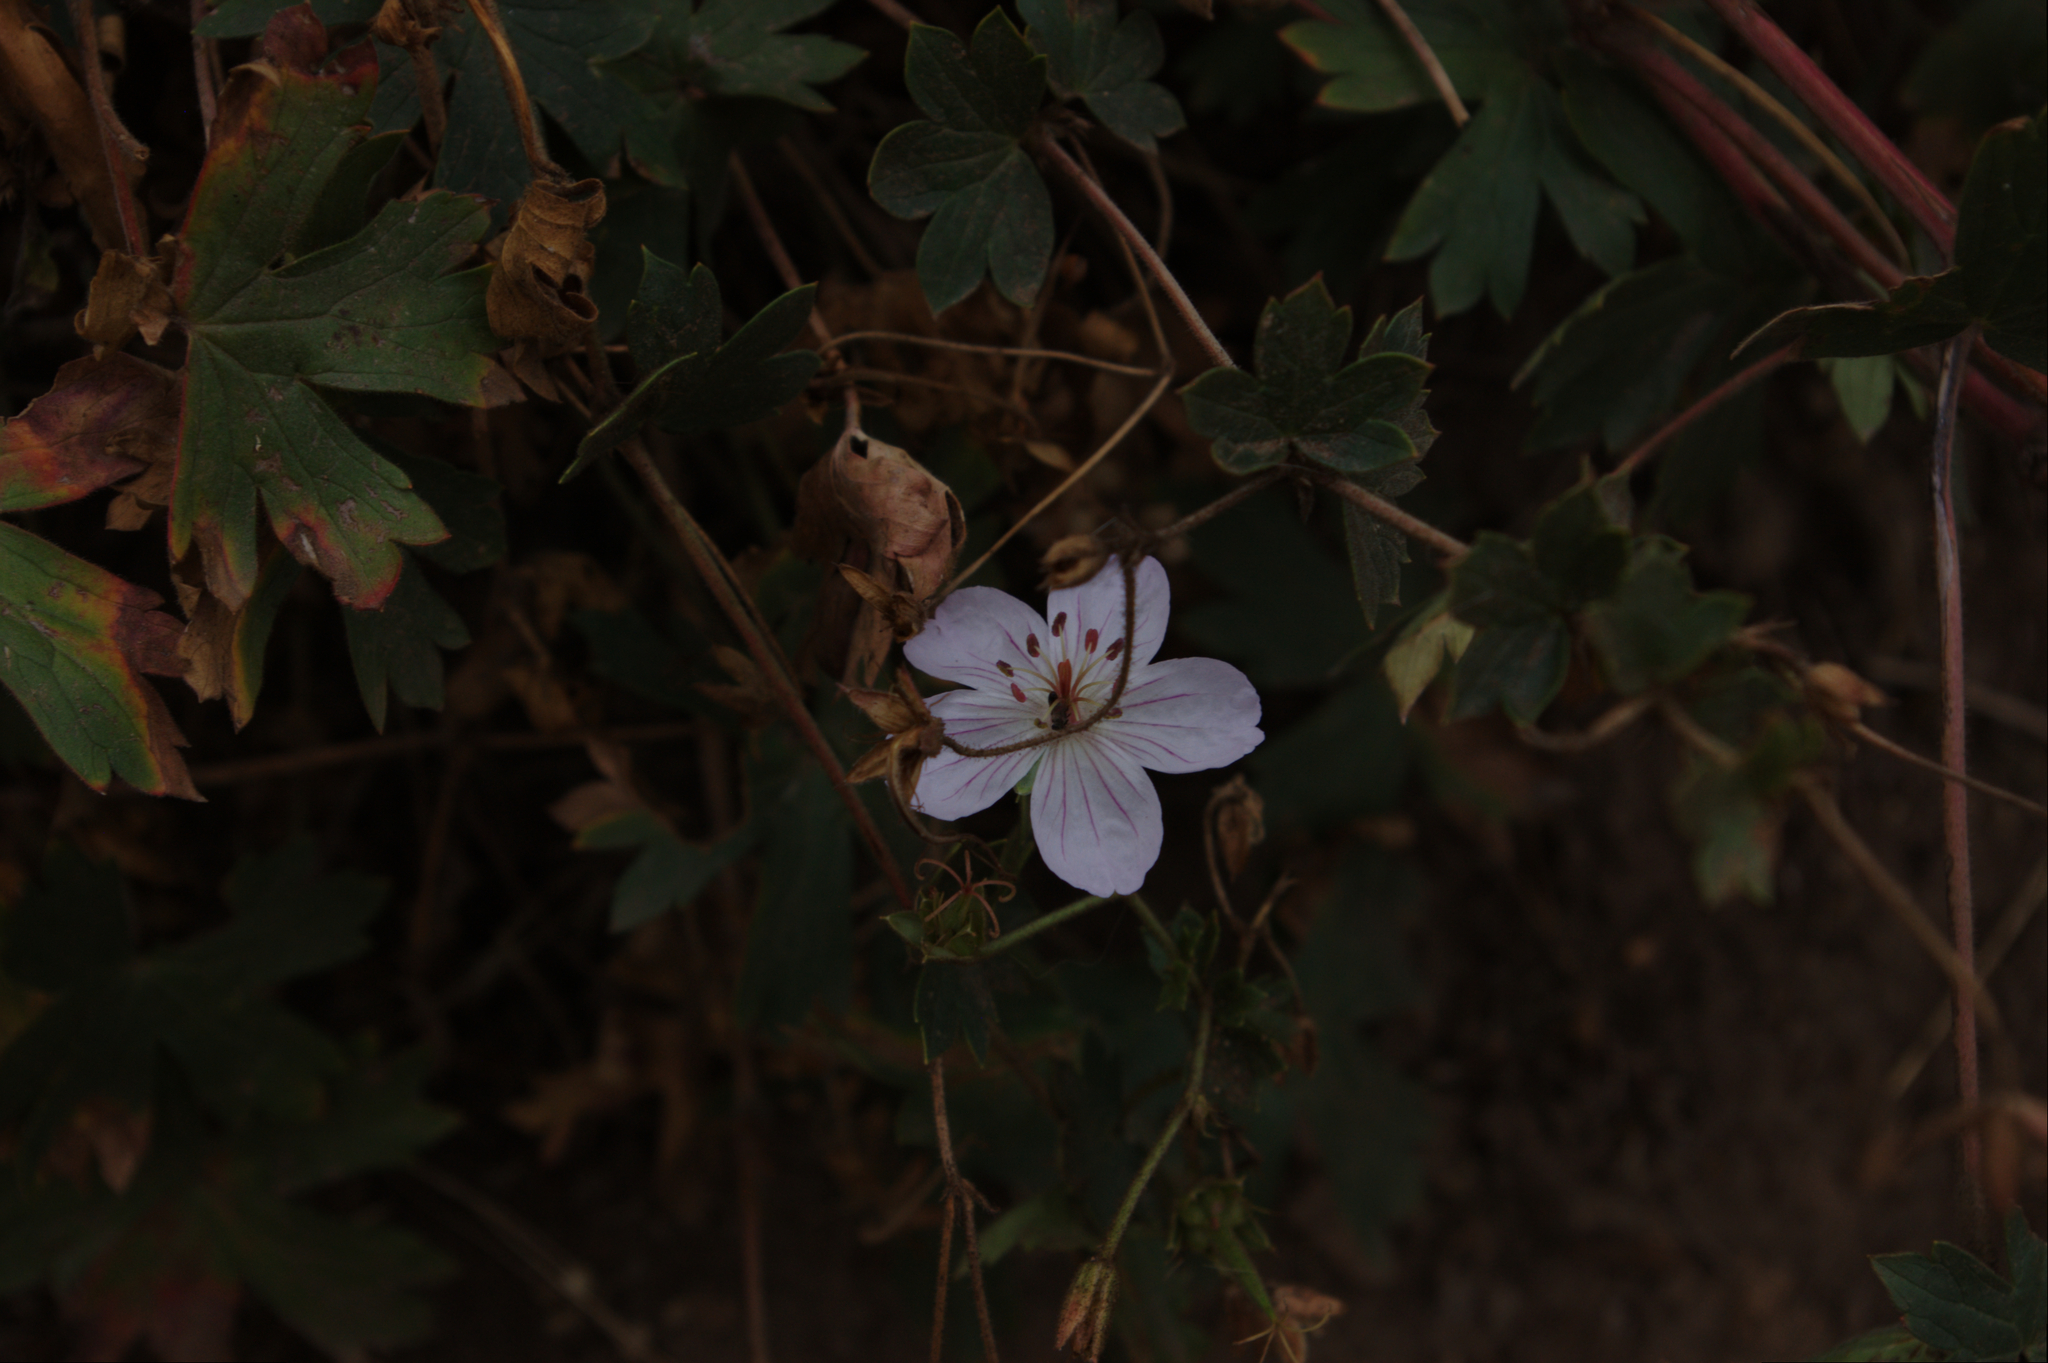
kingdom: Plantae
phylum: Tracheophyta
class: Magnoliopsida
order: Geraniales
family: Geraniaceae
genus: Geranium
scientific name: Geranium richardsonii
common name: Richardson's crane's-bill
